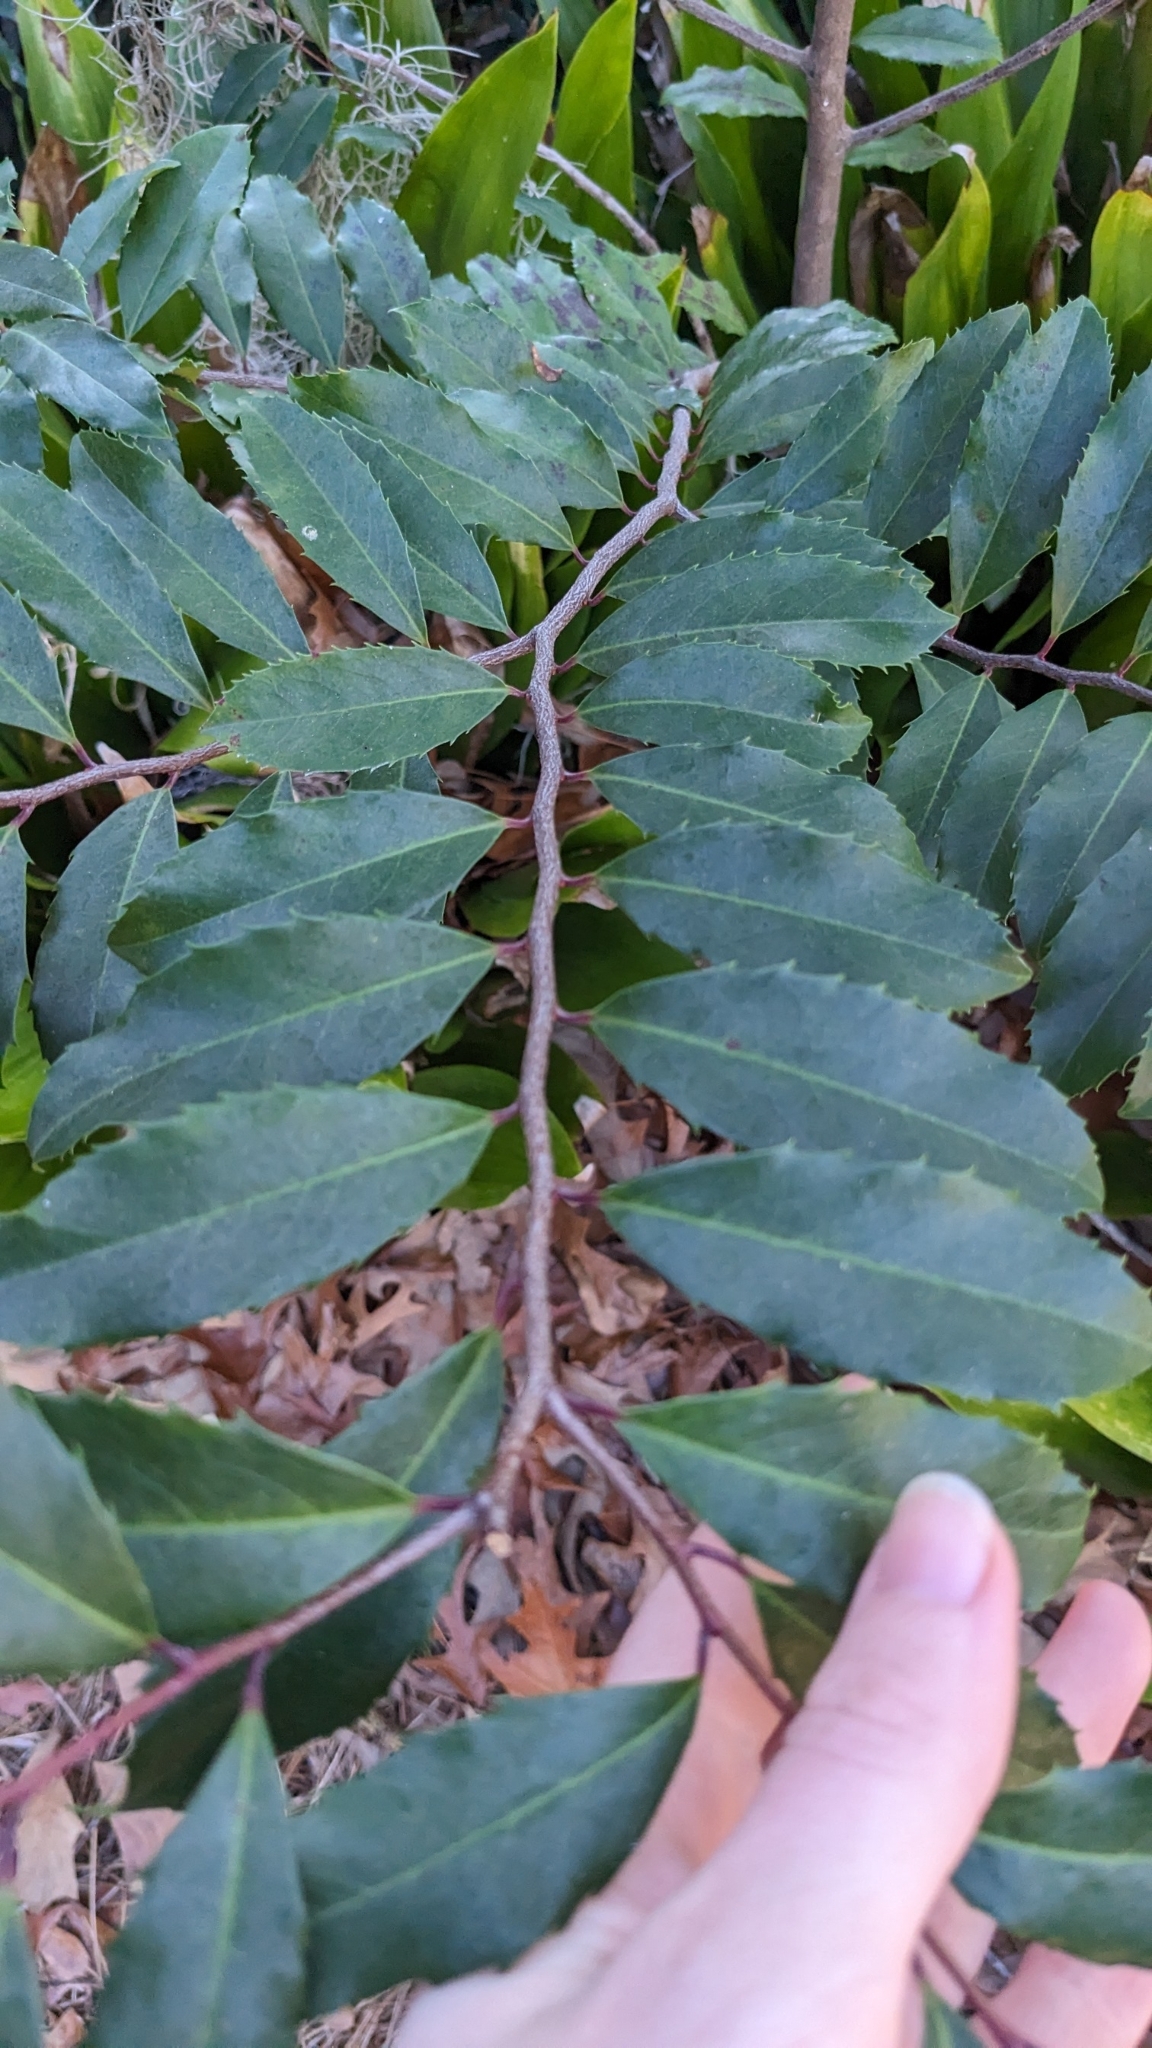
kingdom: Plantae
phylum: Tracheophyta
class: Magnoliopsida
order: Rosales
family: Rosaceae
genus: Prunus
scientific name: Prunus caroliniana
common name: Carolina laurel cherry
